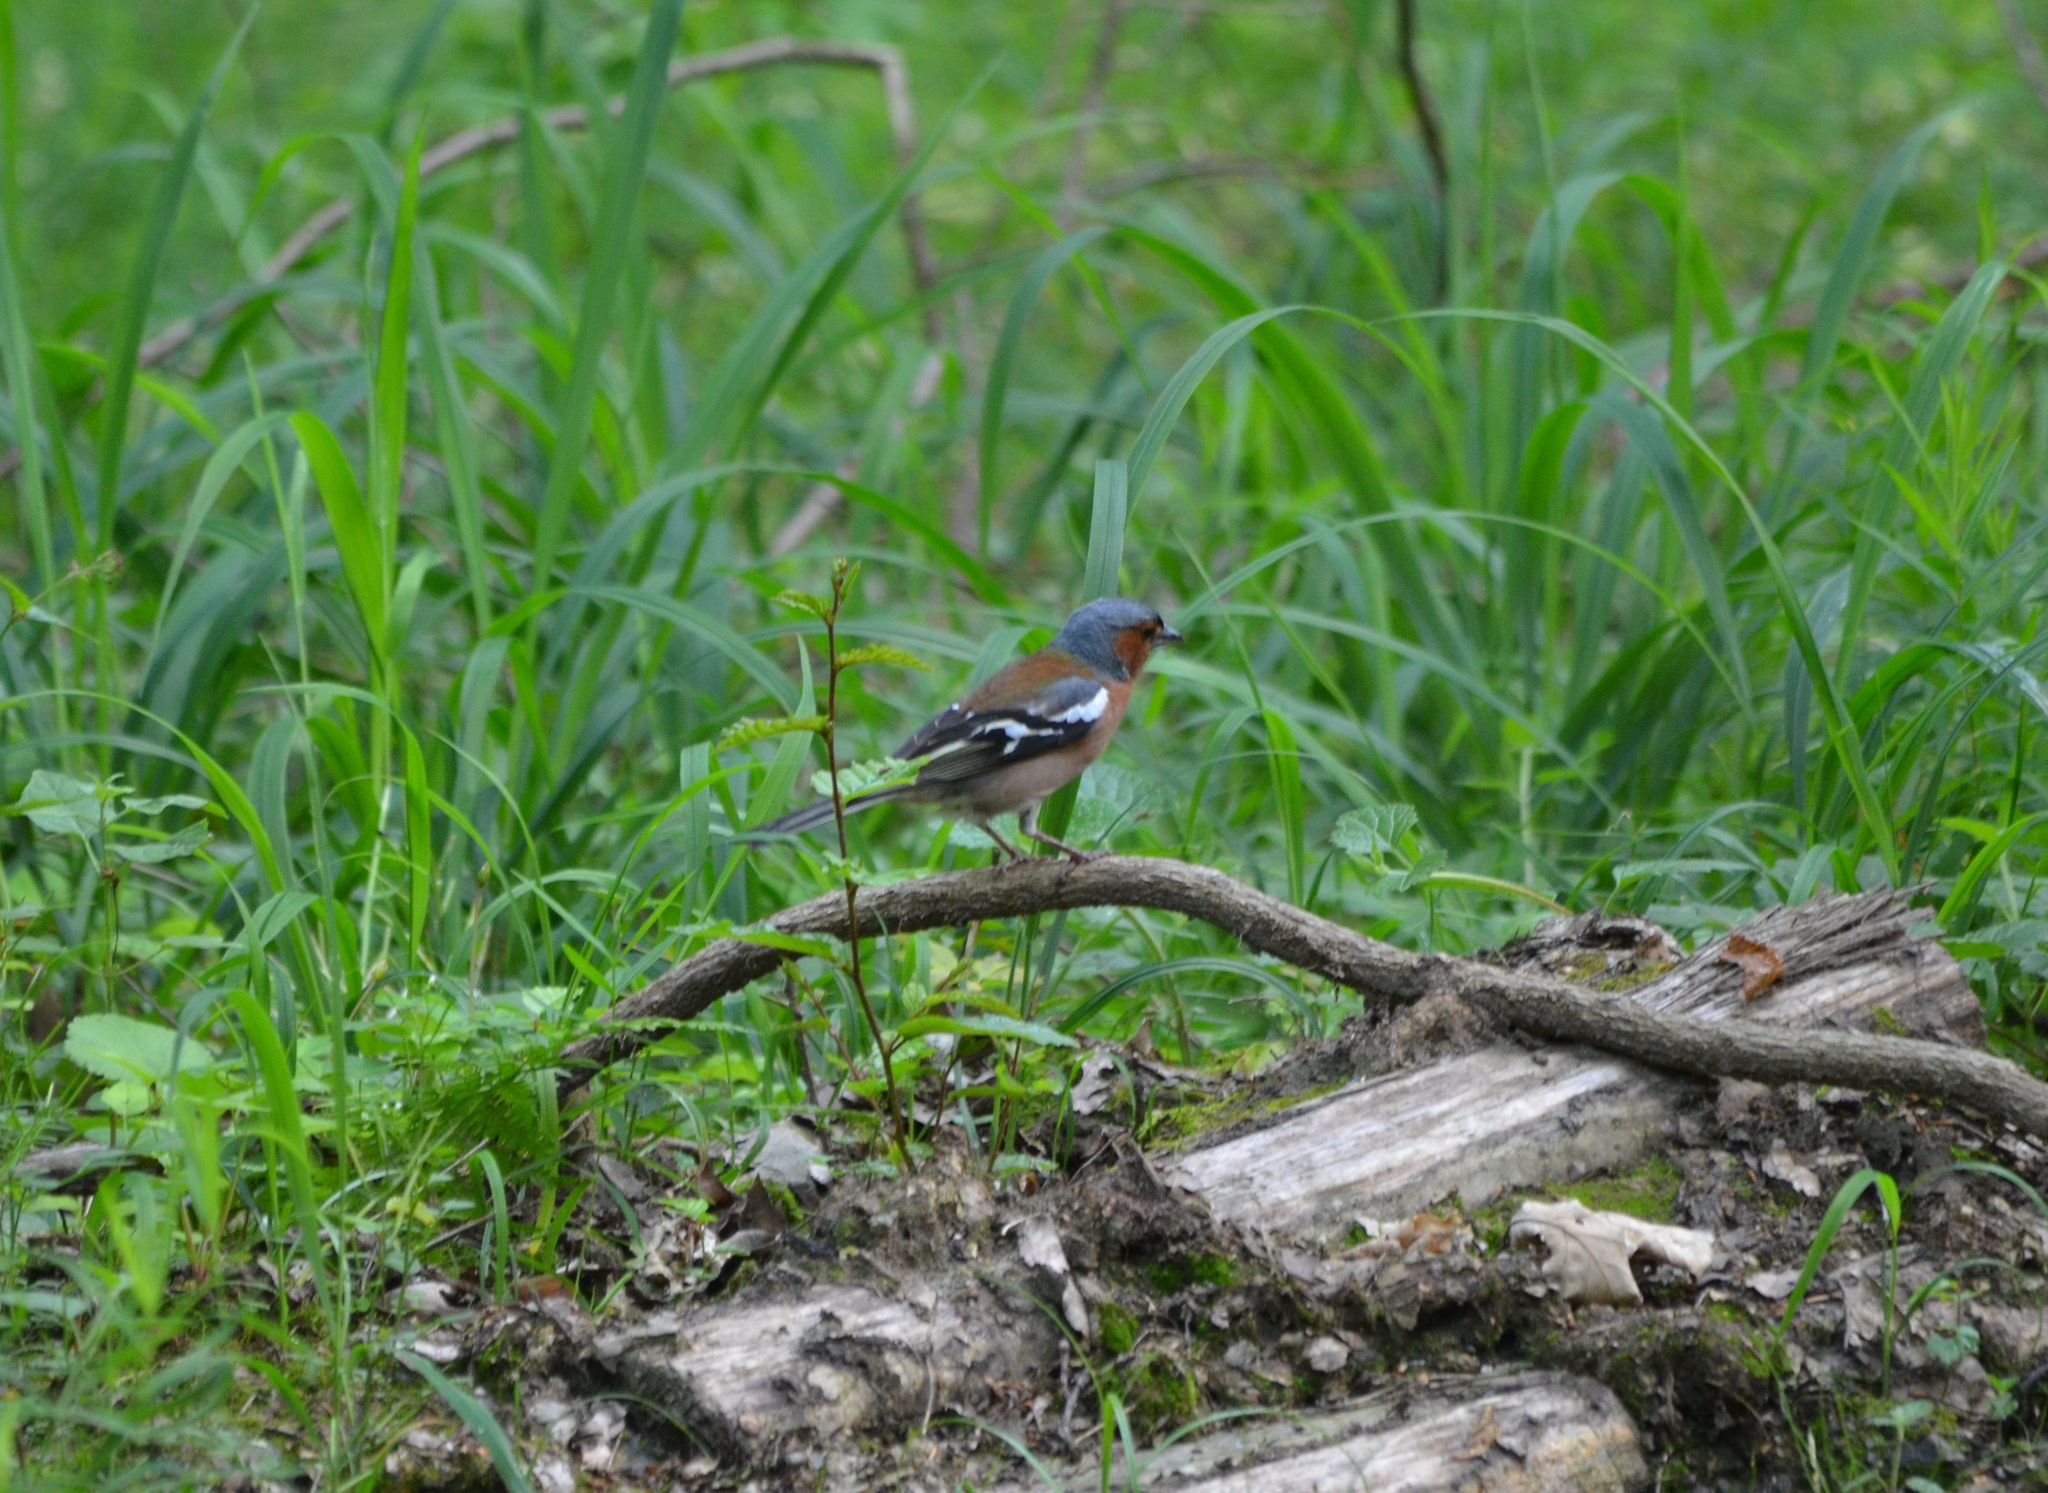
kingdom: Animalia
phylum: Chordata
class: Aves
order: Passeriformes
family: Fringillidae
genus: Fringilla
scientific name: Fringilla coelebs
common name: Common chaffinch
